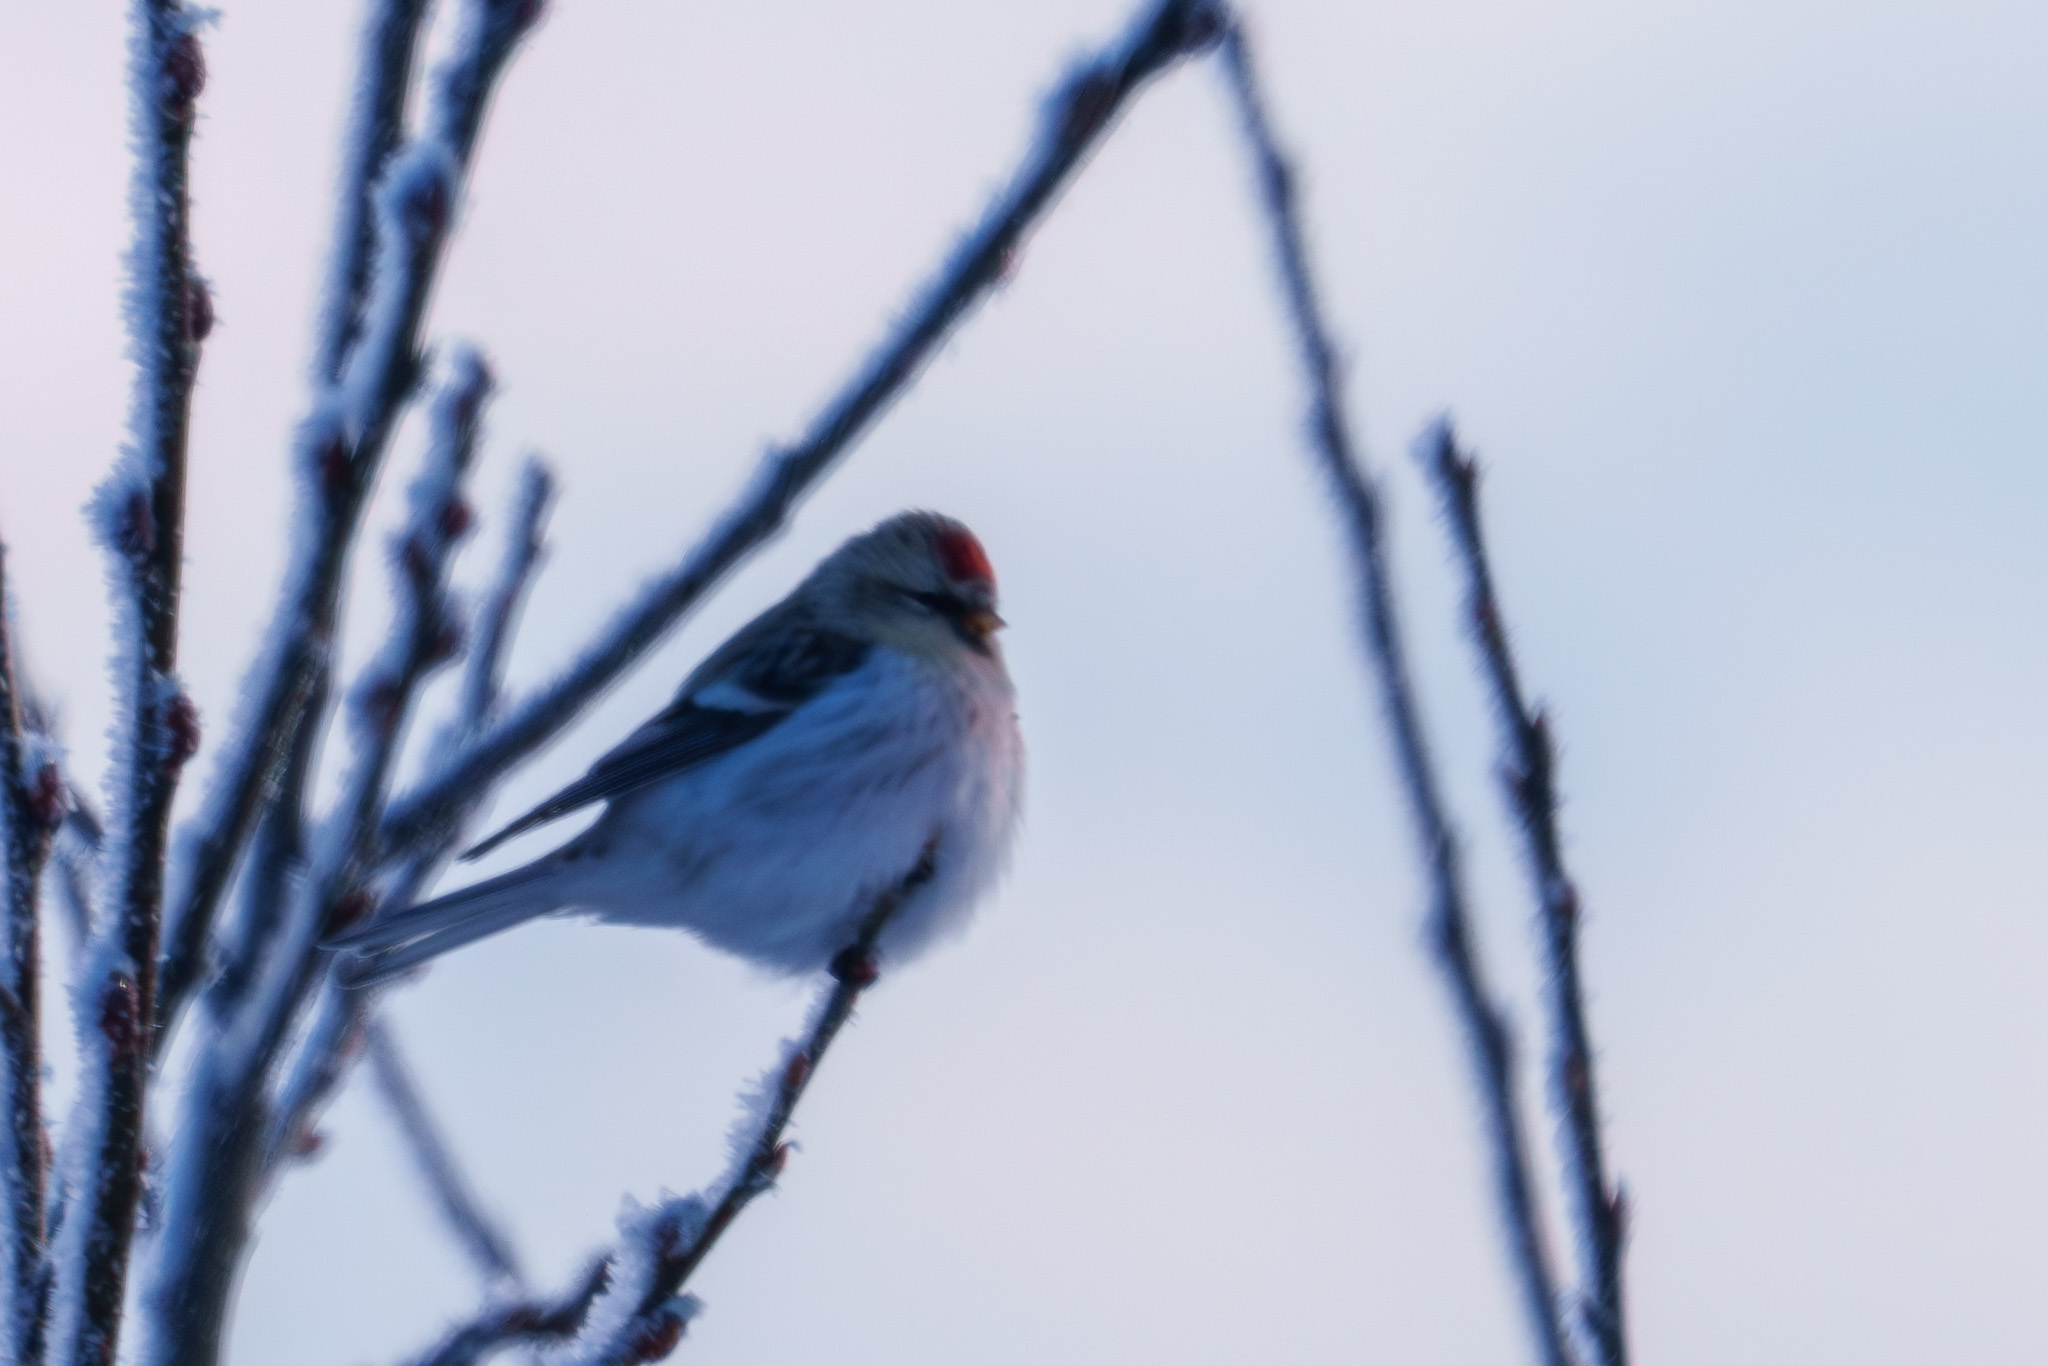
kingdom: Animalia
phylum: Chordata
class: Aves
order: Passeriformes
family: Fringillidae
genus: Acanthis
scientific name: Acanthis hornemanni
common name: Arctic redpoll
